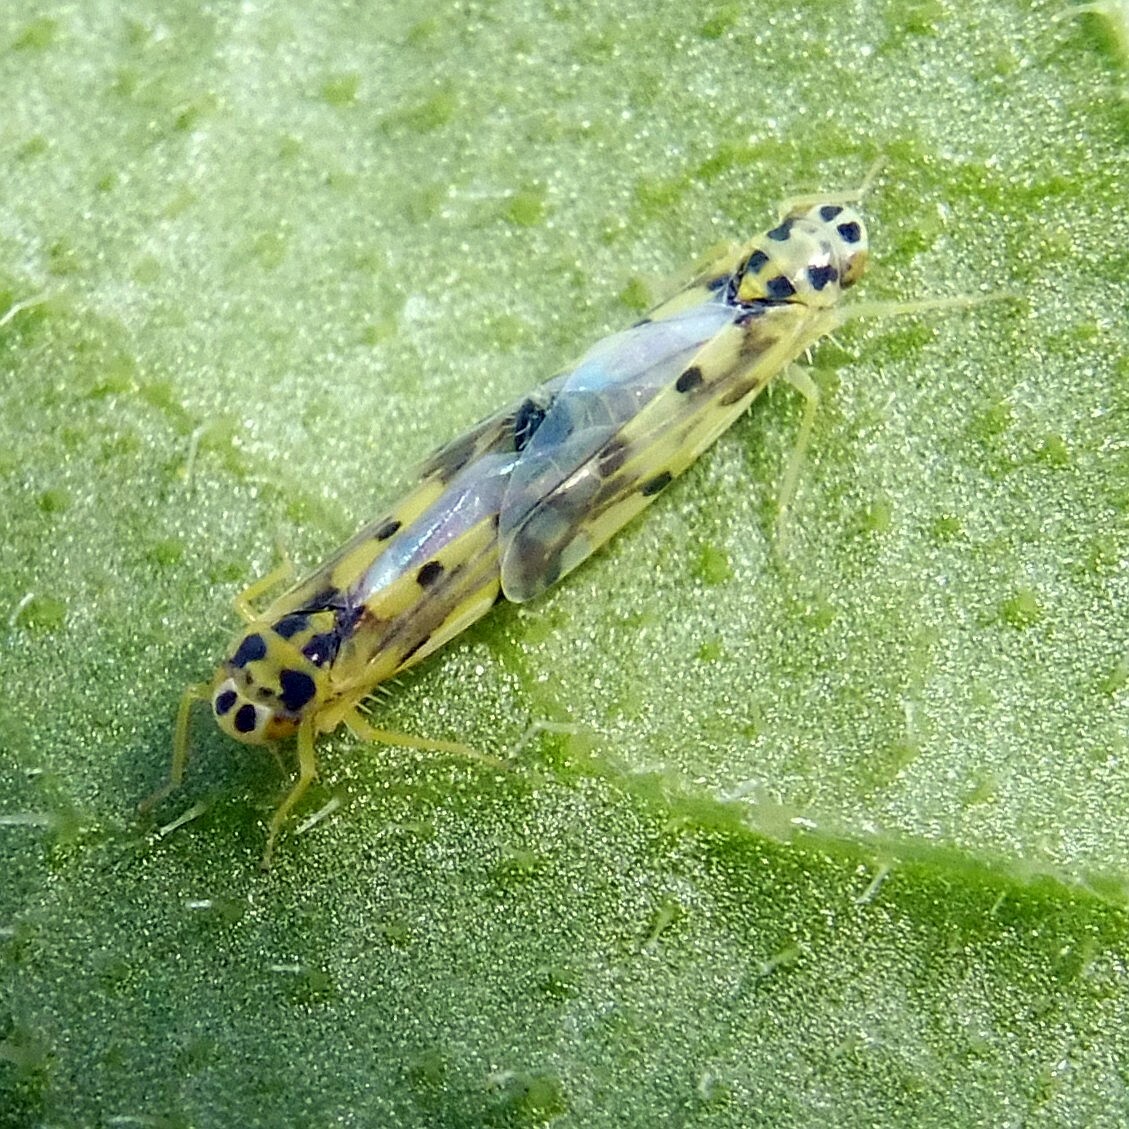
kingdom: Animalia
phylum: Arthropoda
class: Insecta
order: Hemiptera
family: Cicadellidae
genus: Eupteryx
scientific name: Eupteryx aurata
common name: Leafhopper
